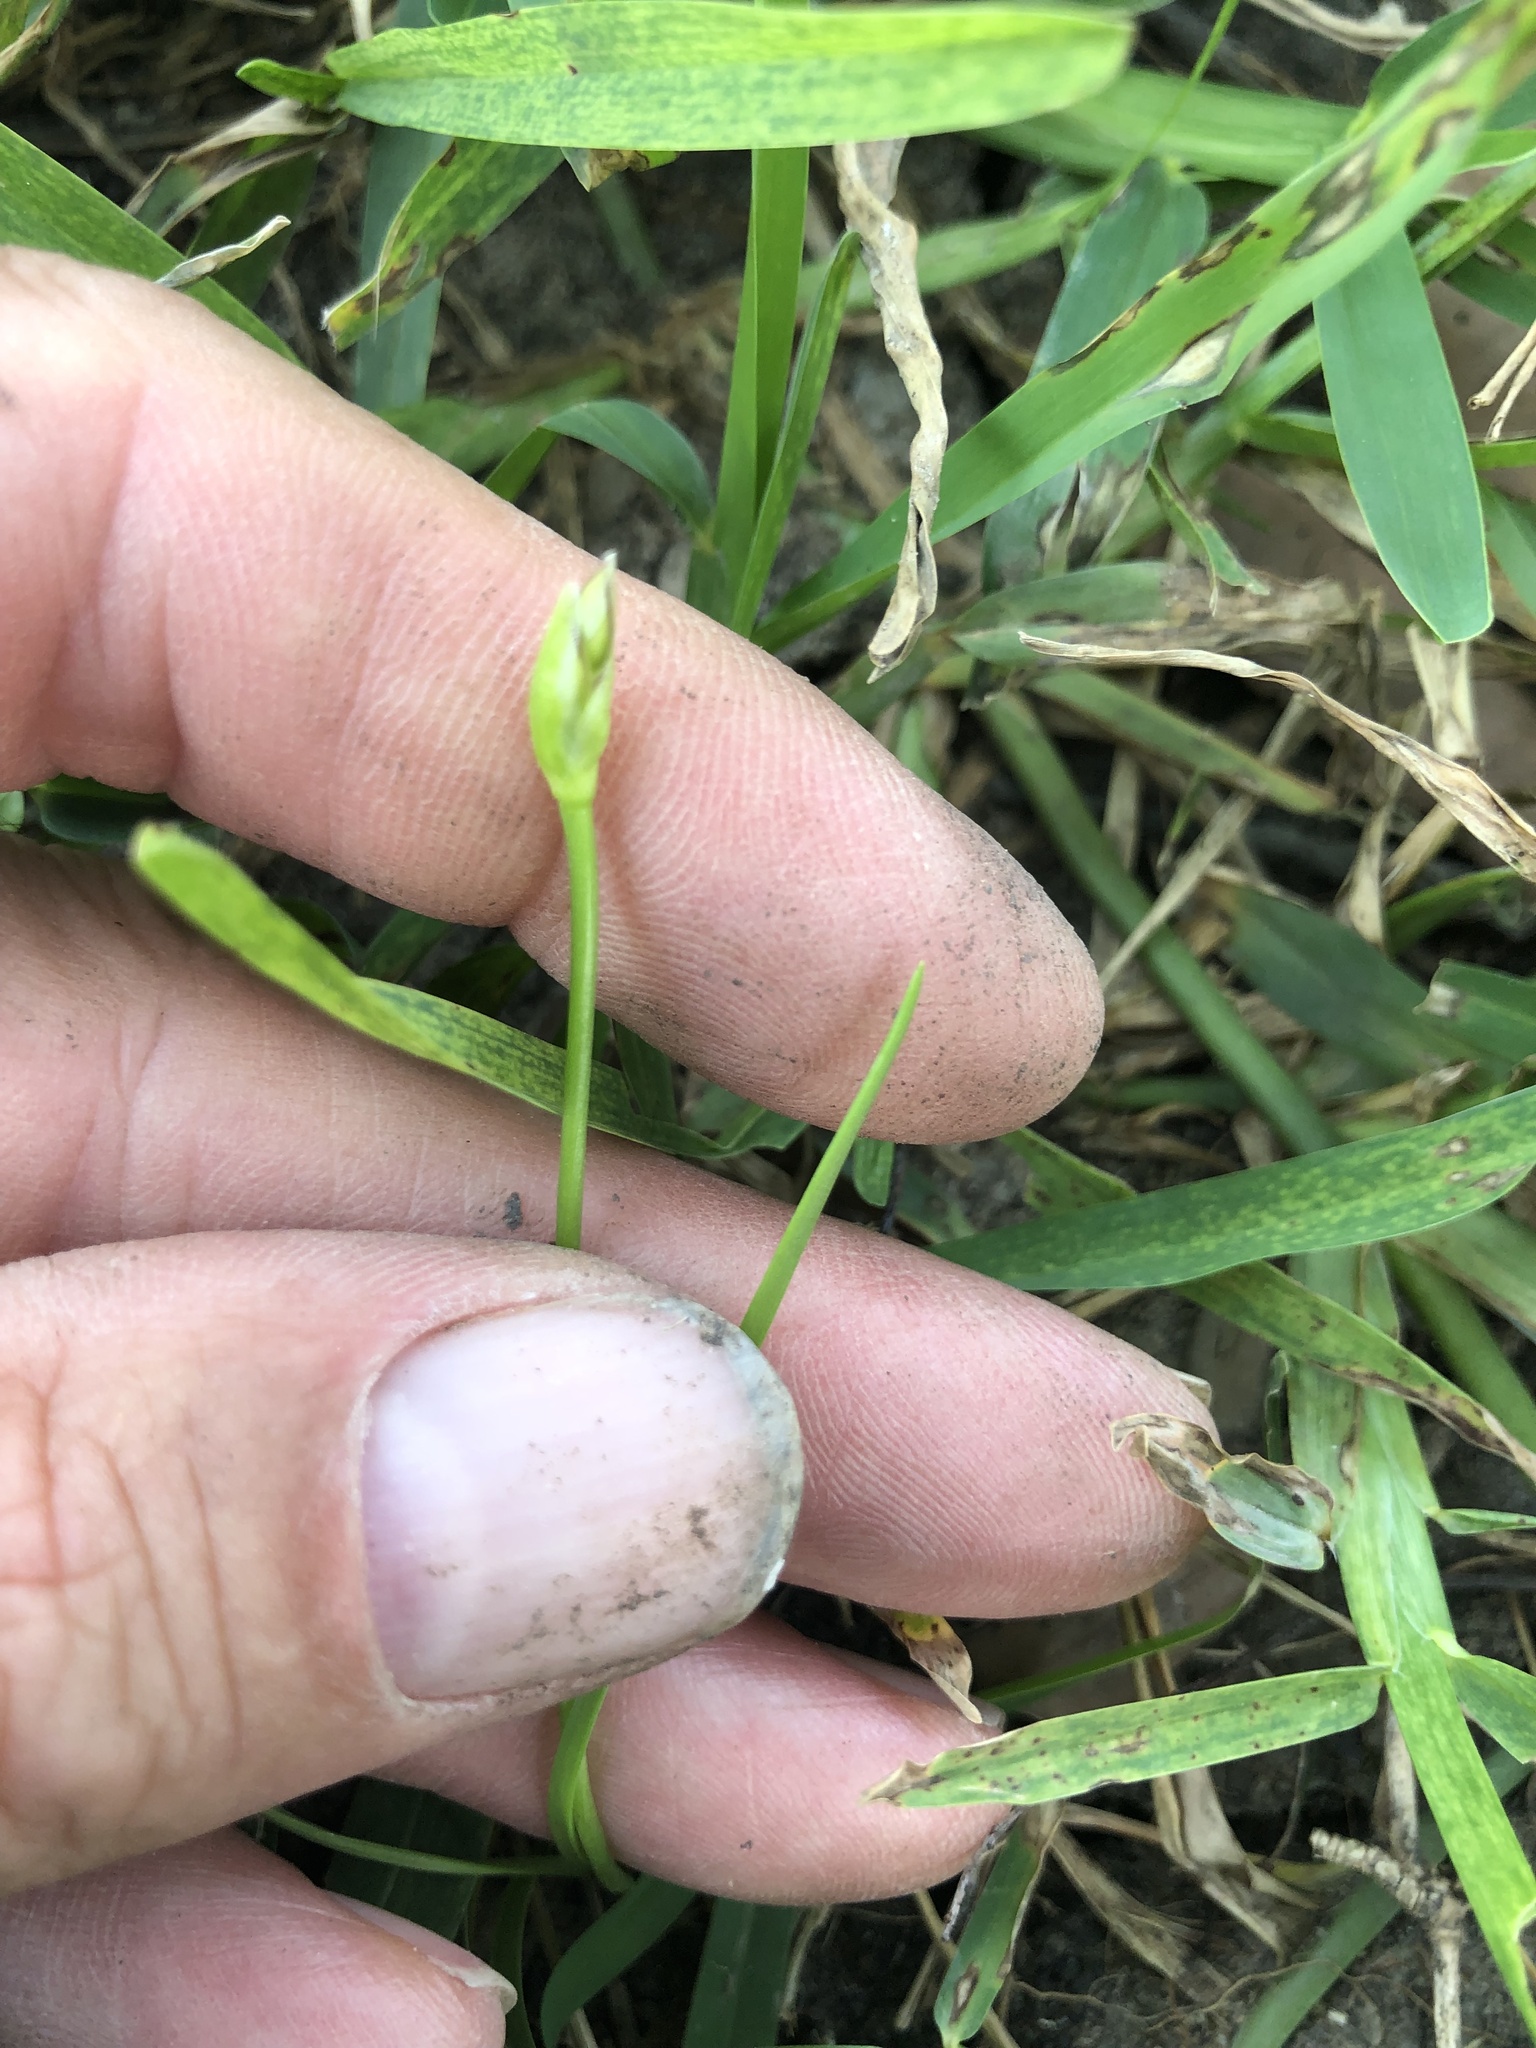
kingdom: Plantae
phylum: Tracheophyta
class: Liliopsida
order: Asparagales
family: Amaryllidaceae
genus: Nothoscordum
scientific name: Nothoscordum bivalve
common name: Crow-poison
